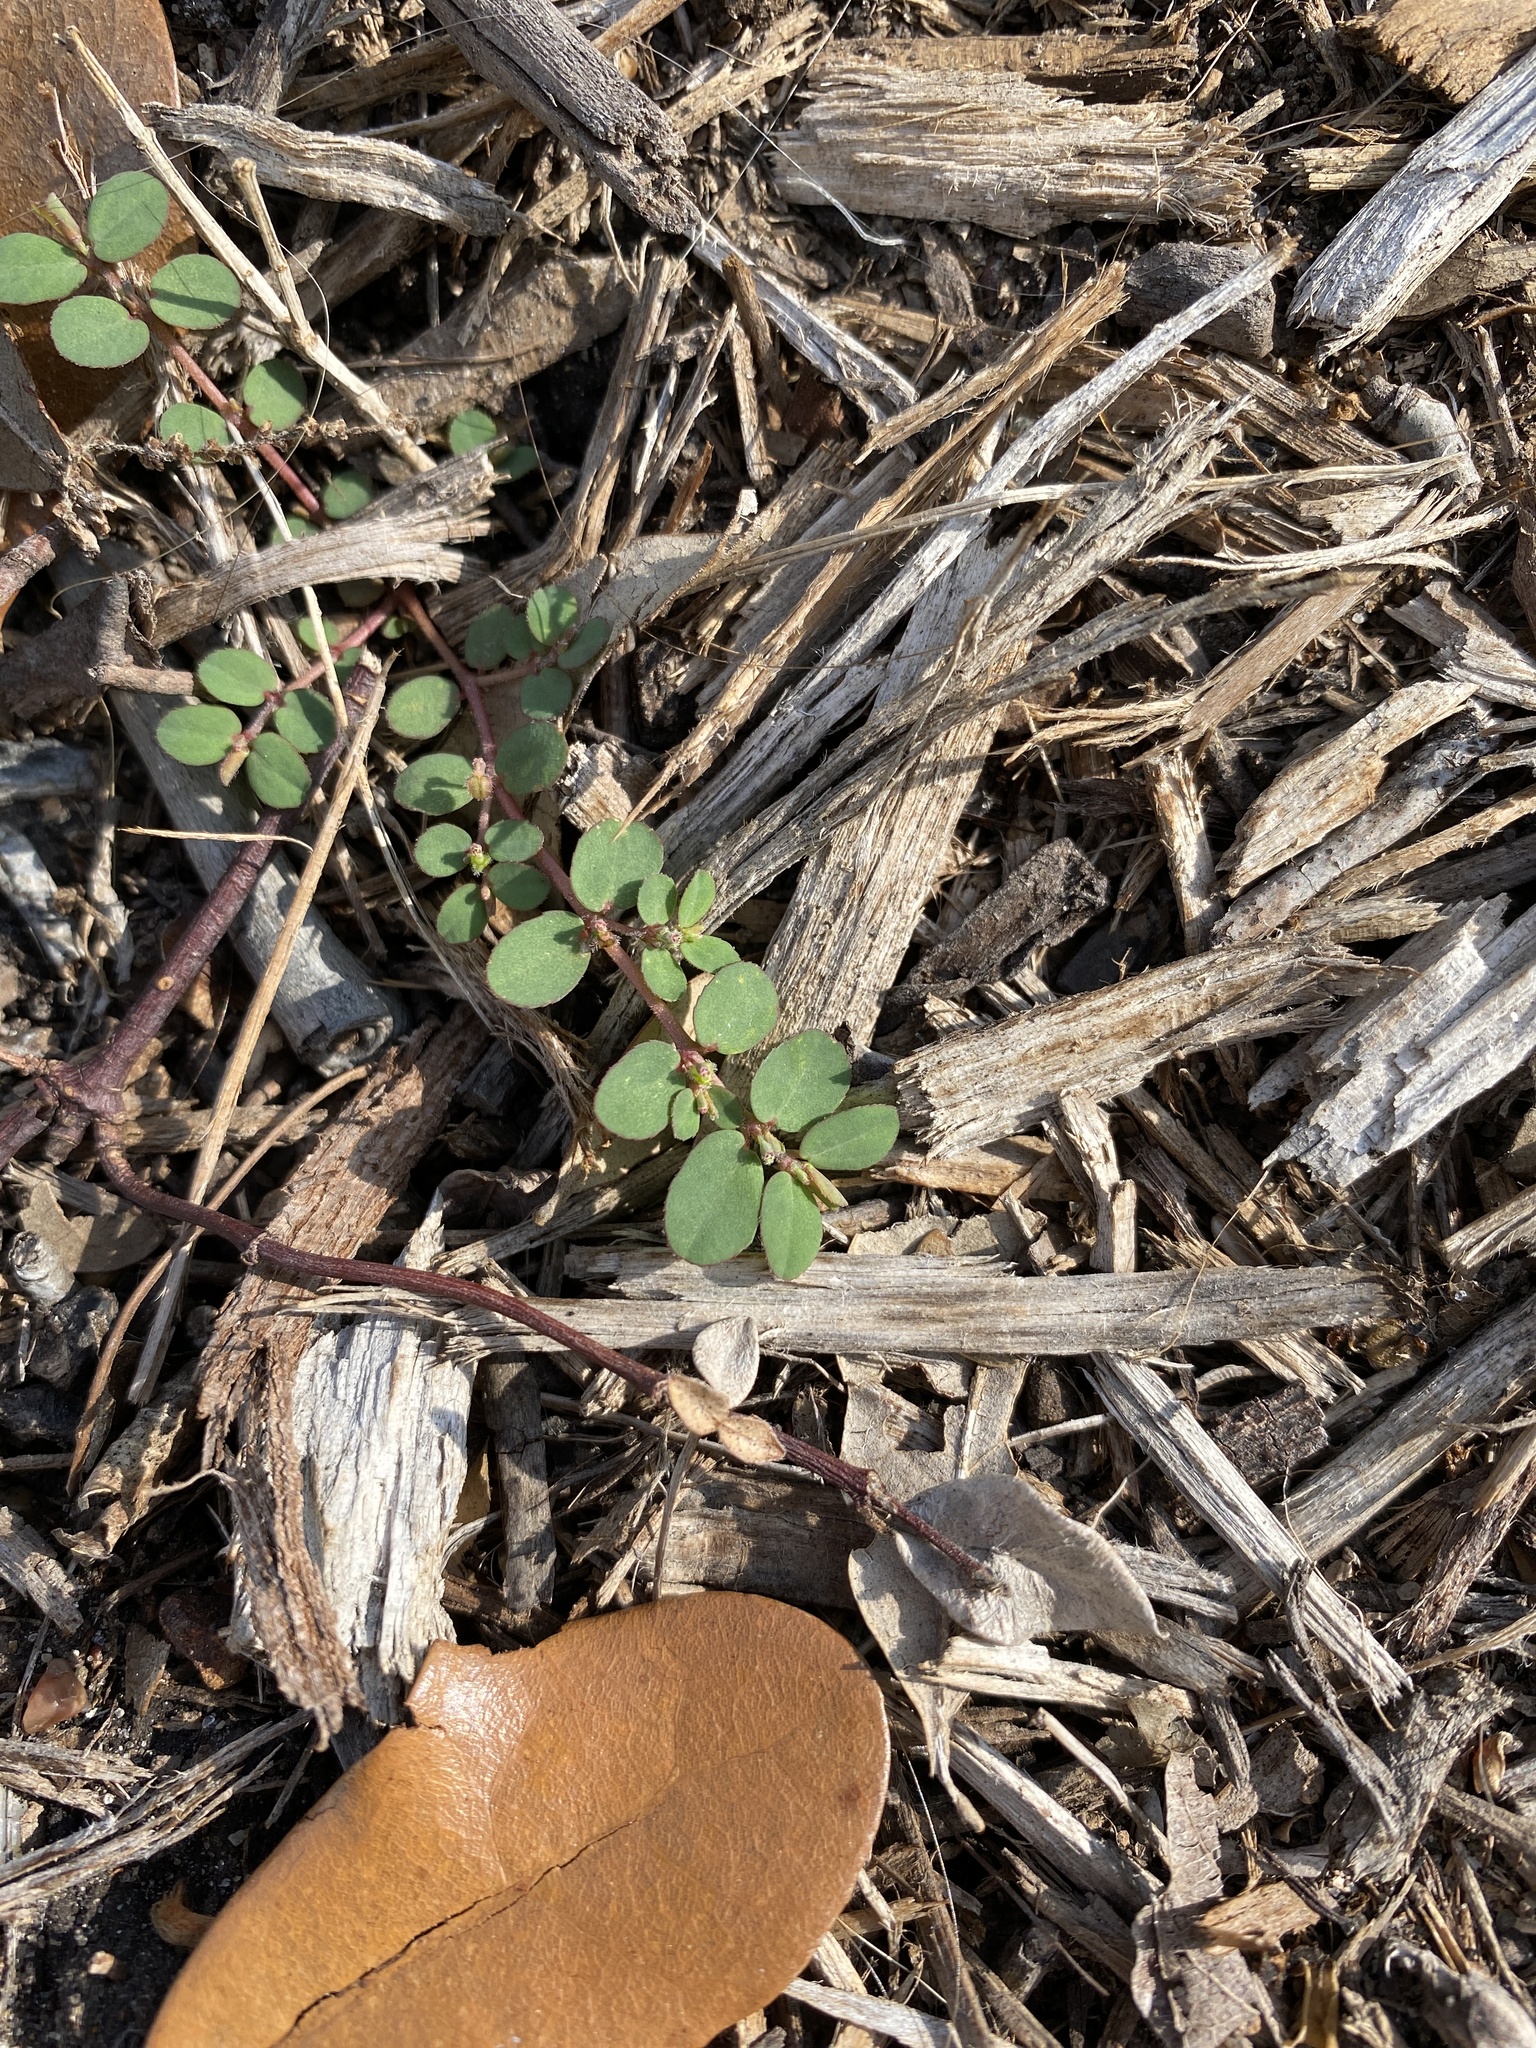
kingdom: Plantae
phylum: Tracheophyta
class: Magnoliopsida
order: Malpighiales
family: Euphorbiaceae
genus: Euphorbia
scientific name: Euphorbia prostrata
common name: Prostrate sandmat
